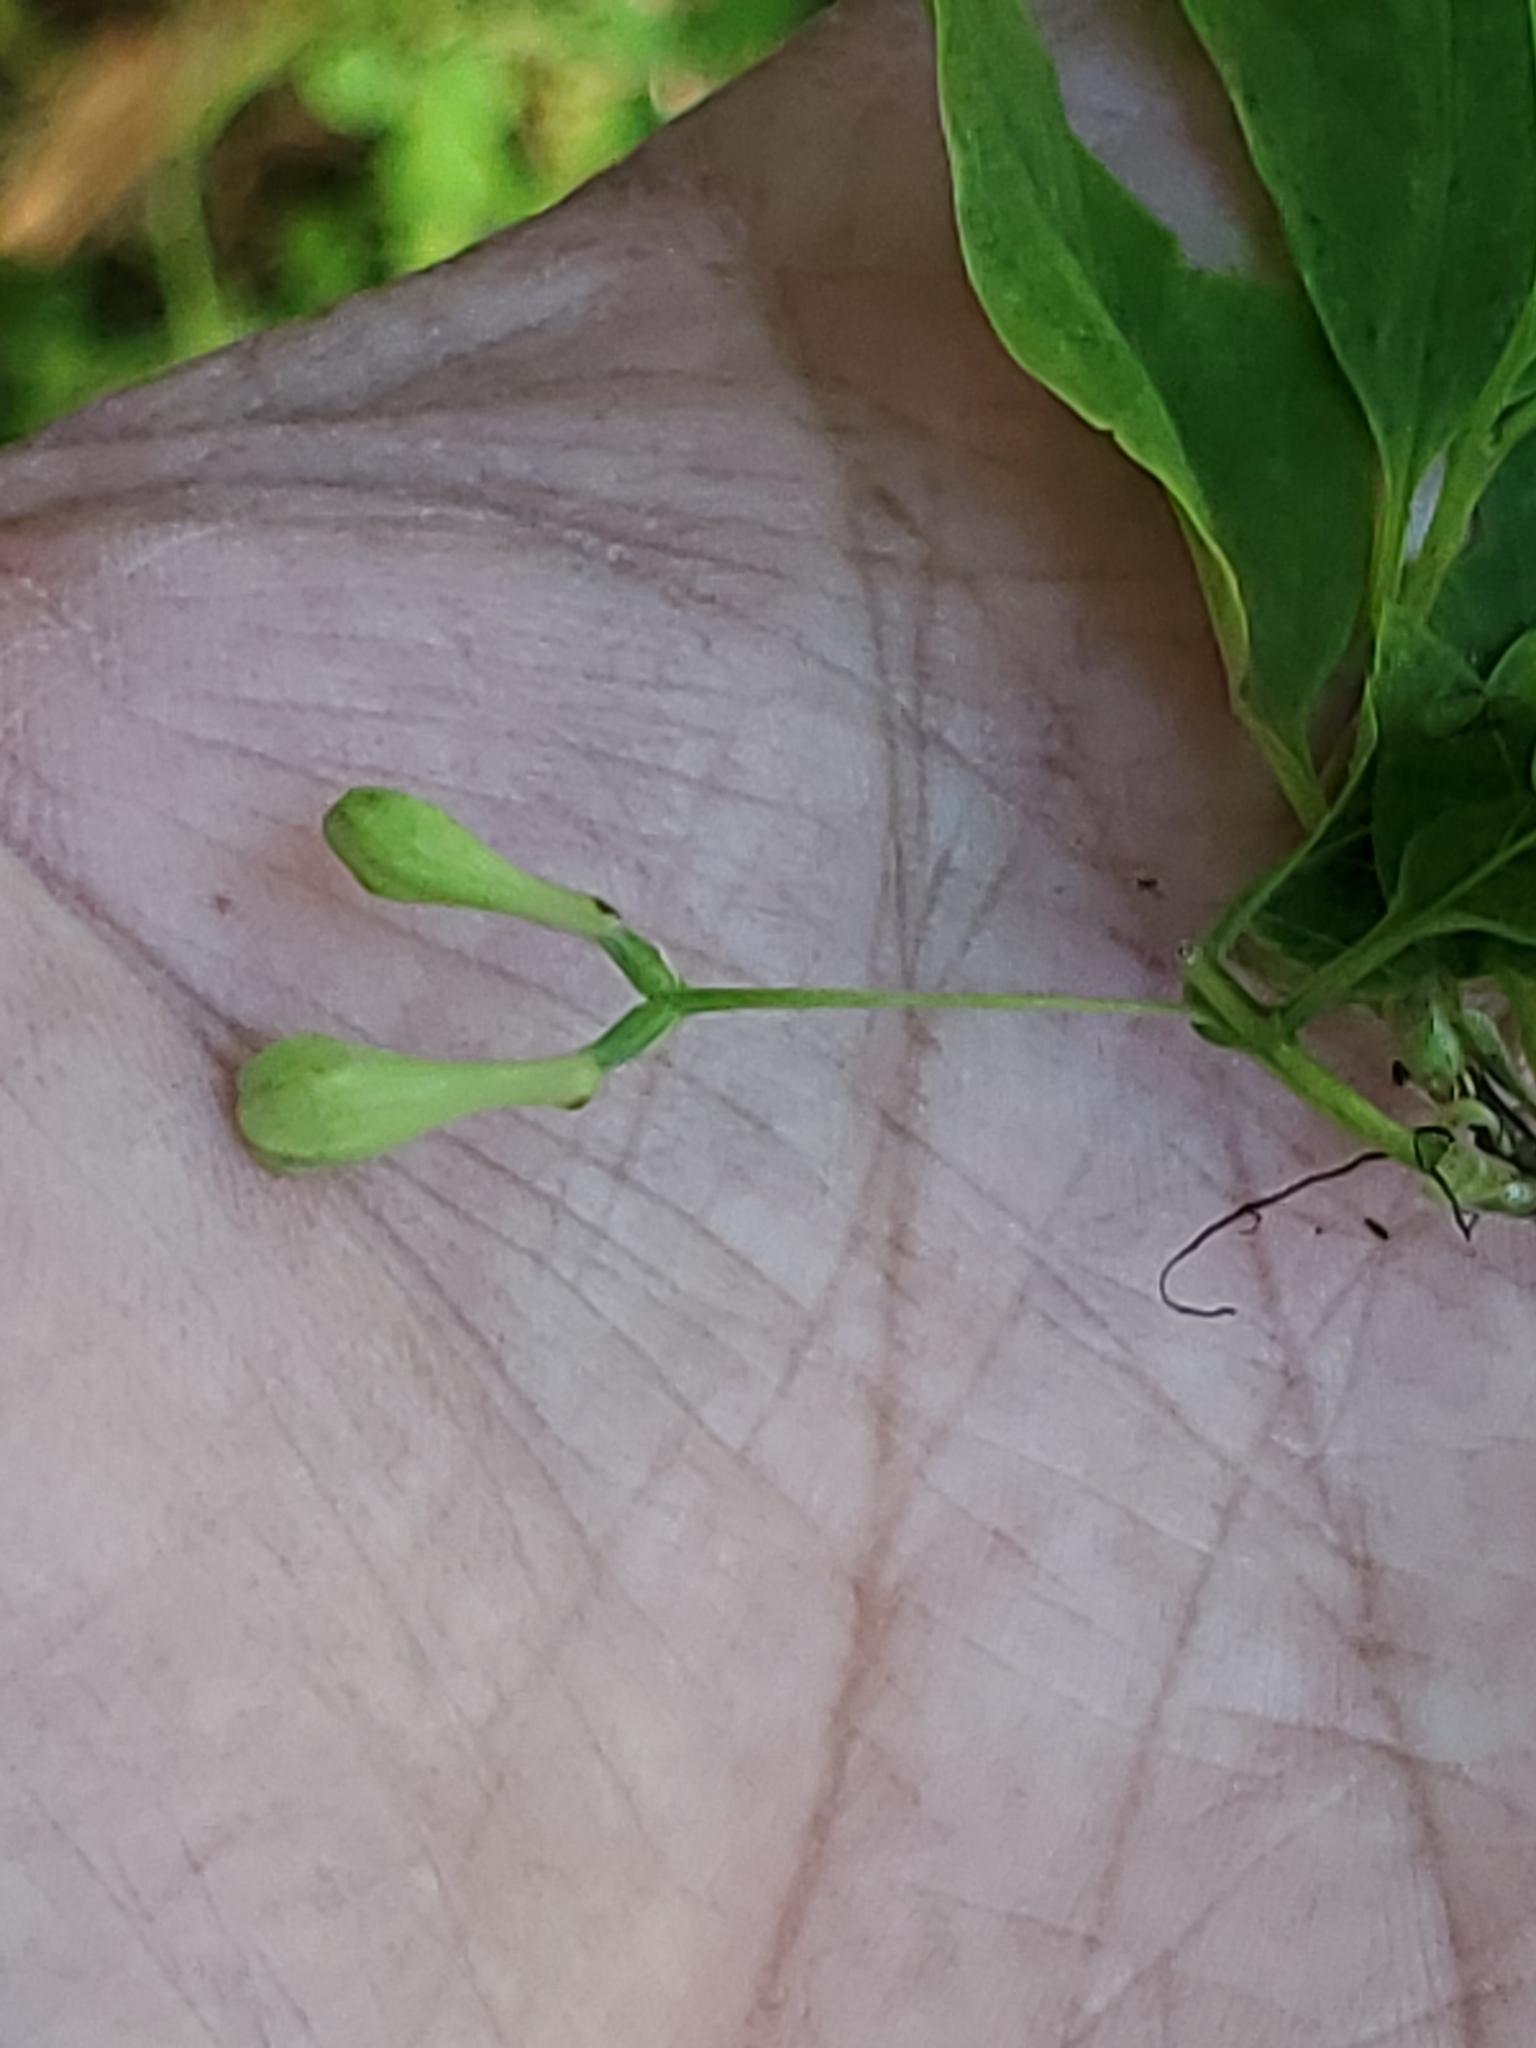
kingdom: Plantae
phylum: Tracheophyta
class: Magnoliopsida
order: Dipsacales
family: Caprifoliaceae
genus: Lonicera
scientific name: Lonicera utahensis
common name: Utah honeysuckle
